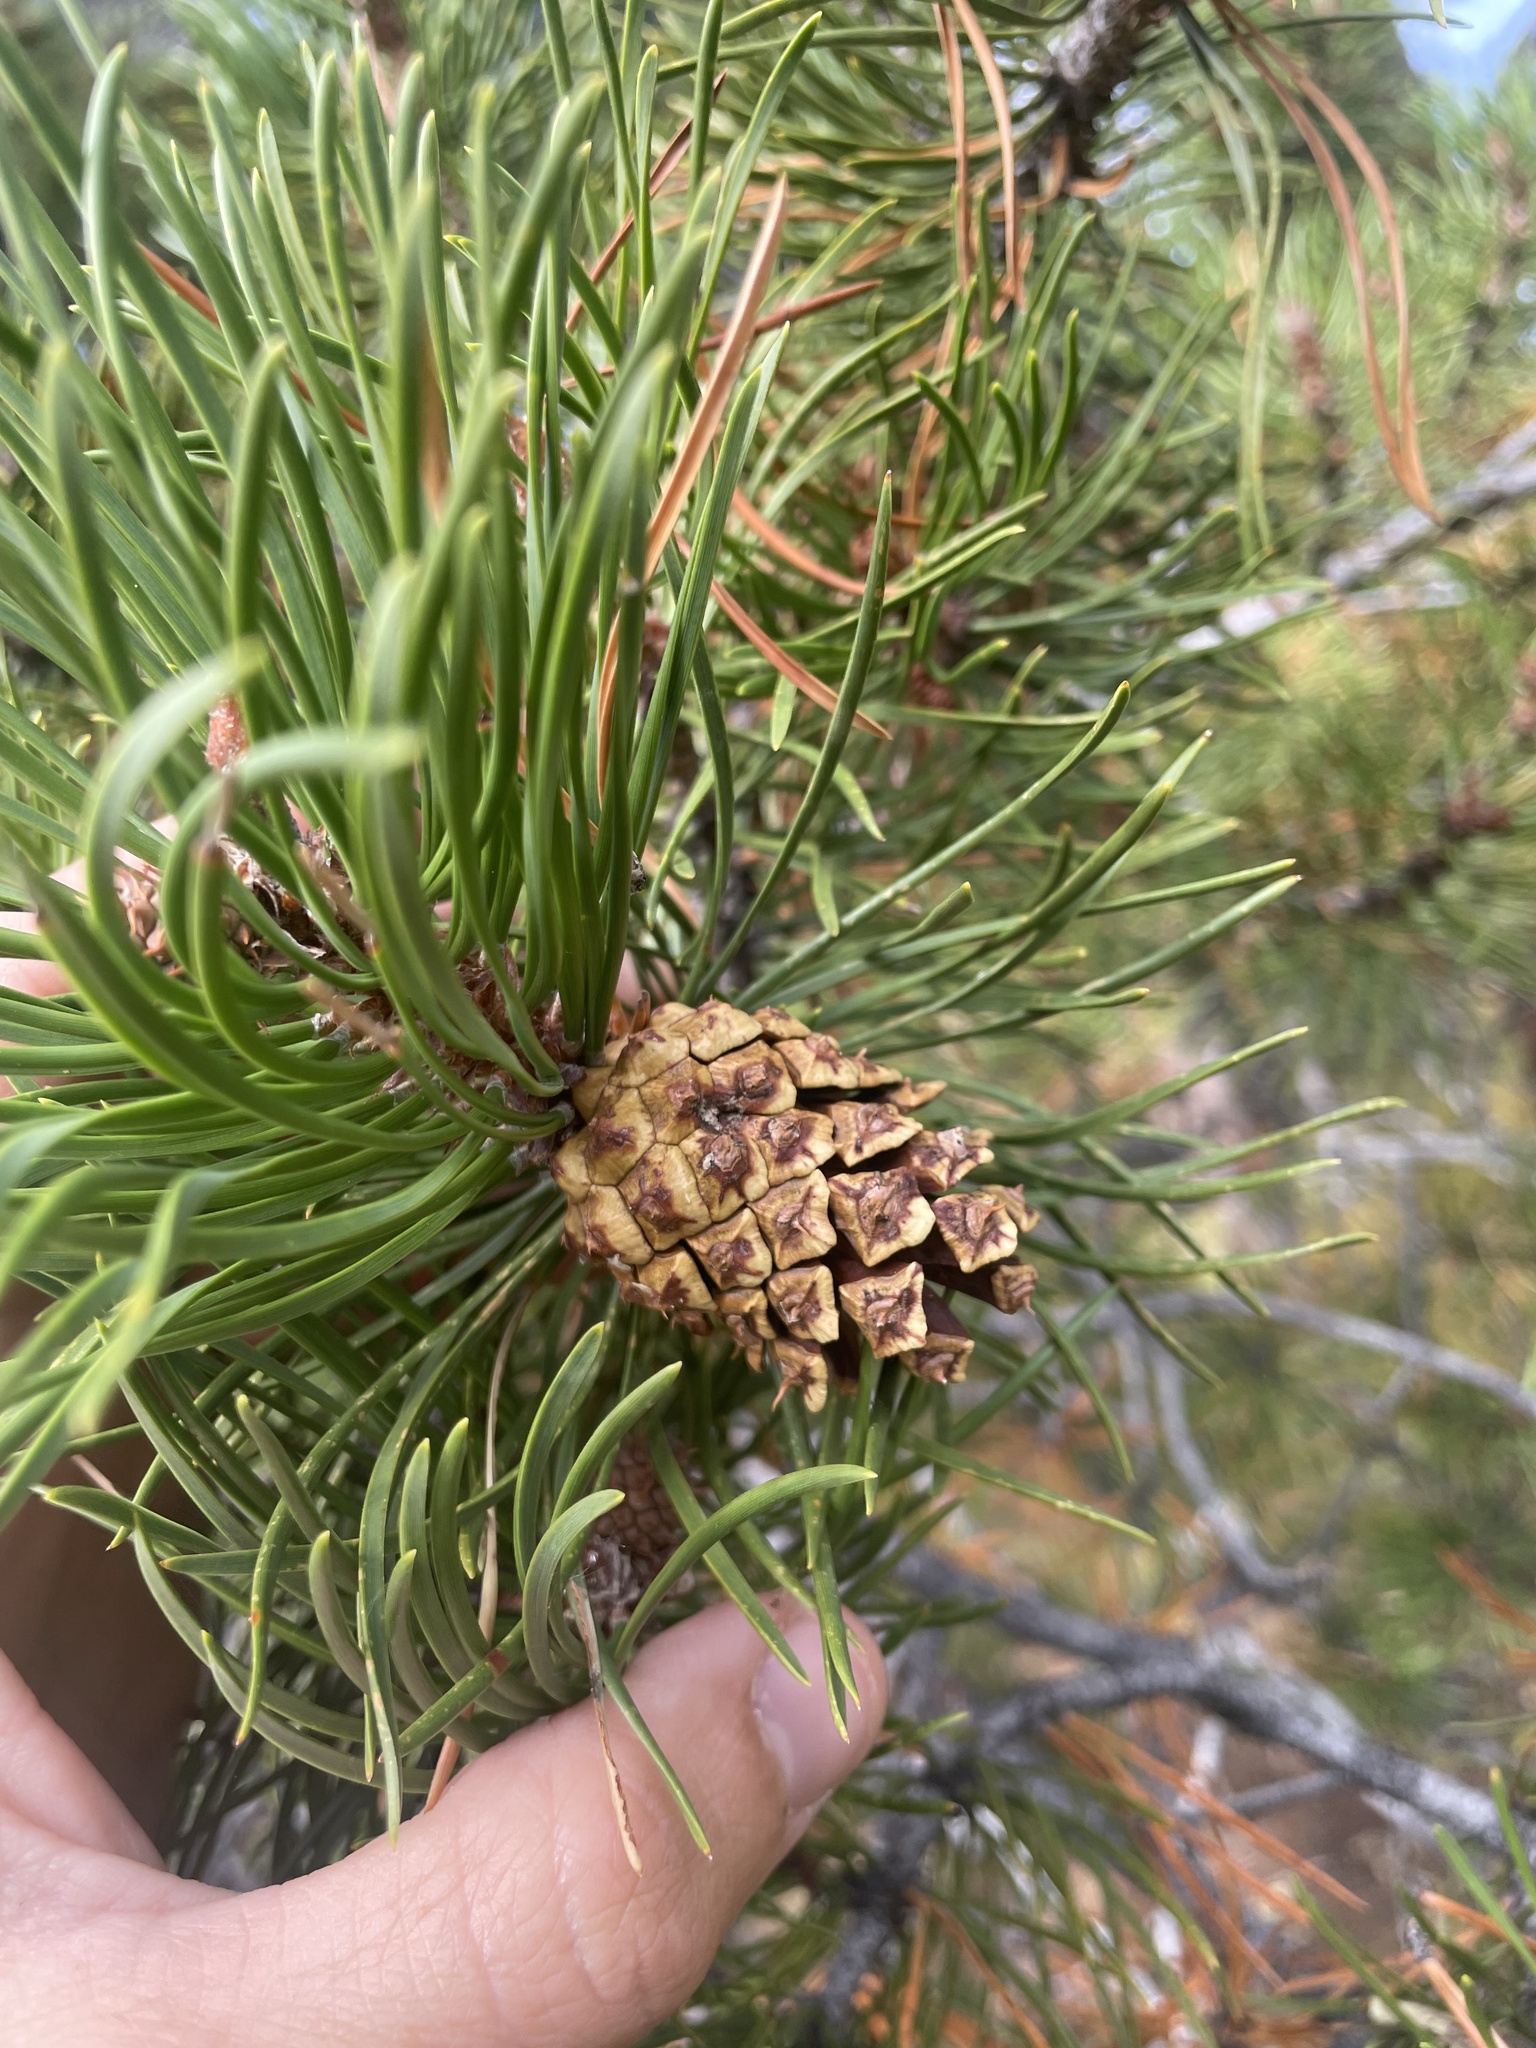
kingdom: Plantae
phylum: Tracheophyta
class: Pinopsida
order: Pinales
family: Pinaceae
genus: Pinus
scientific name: Pinus contorta
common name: Lodgepole pine
